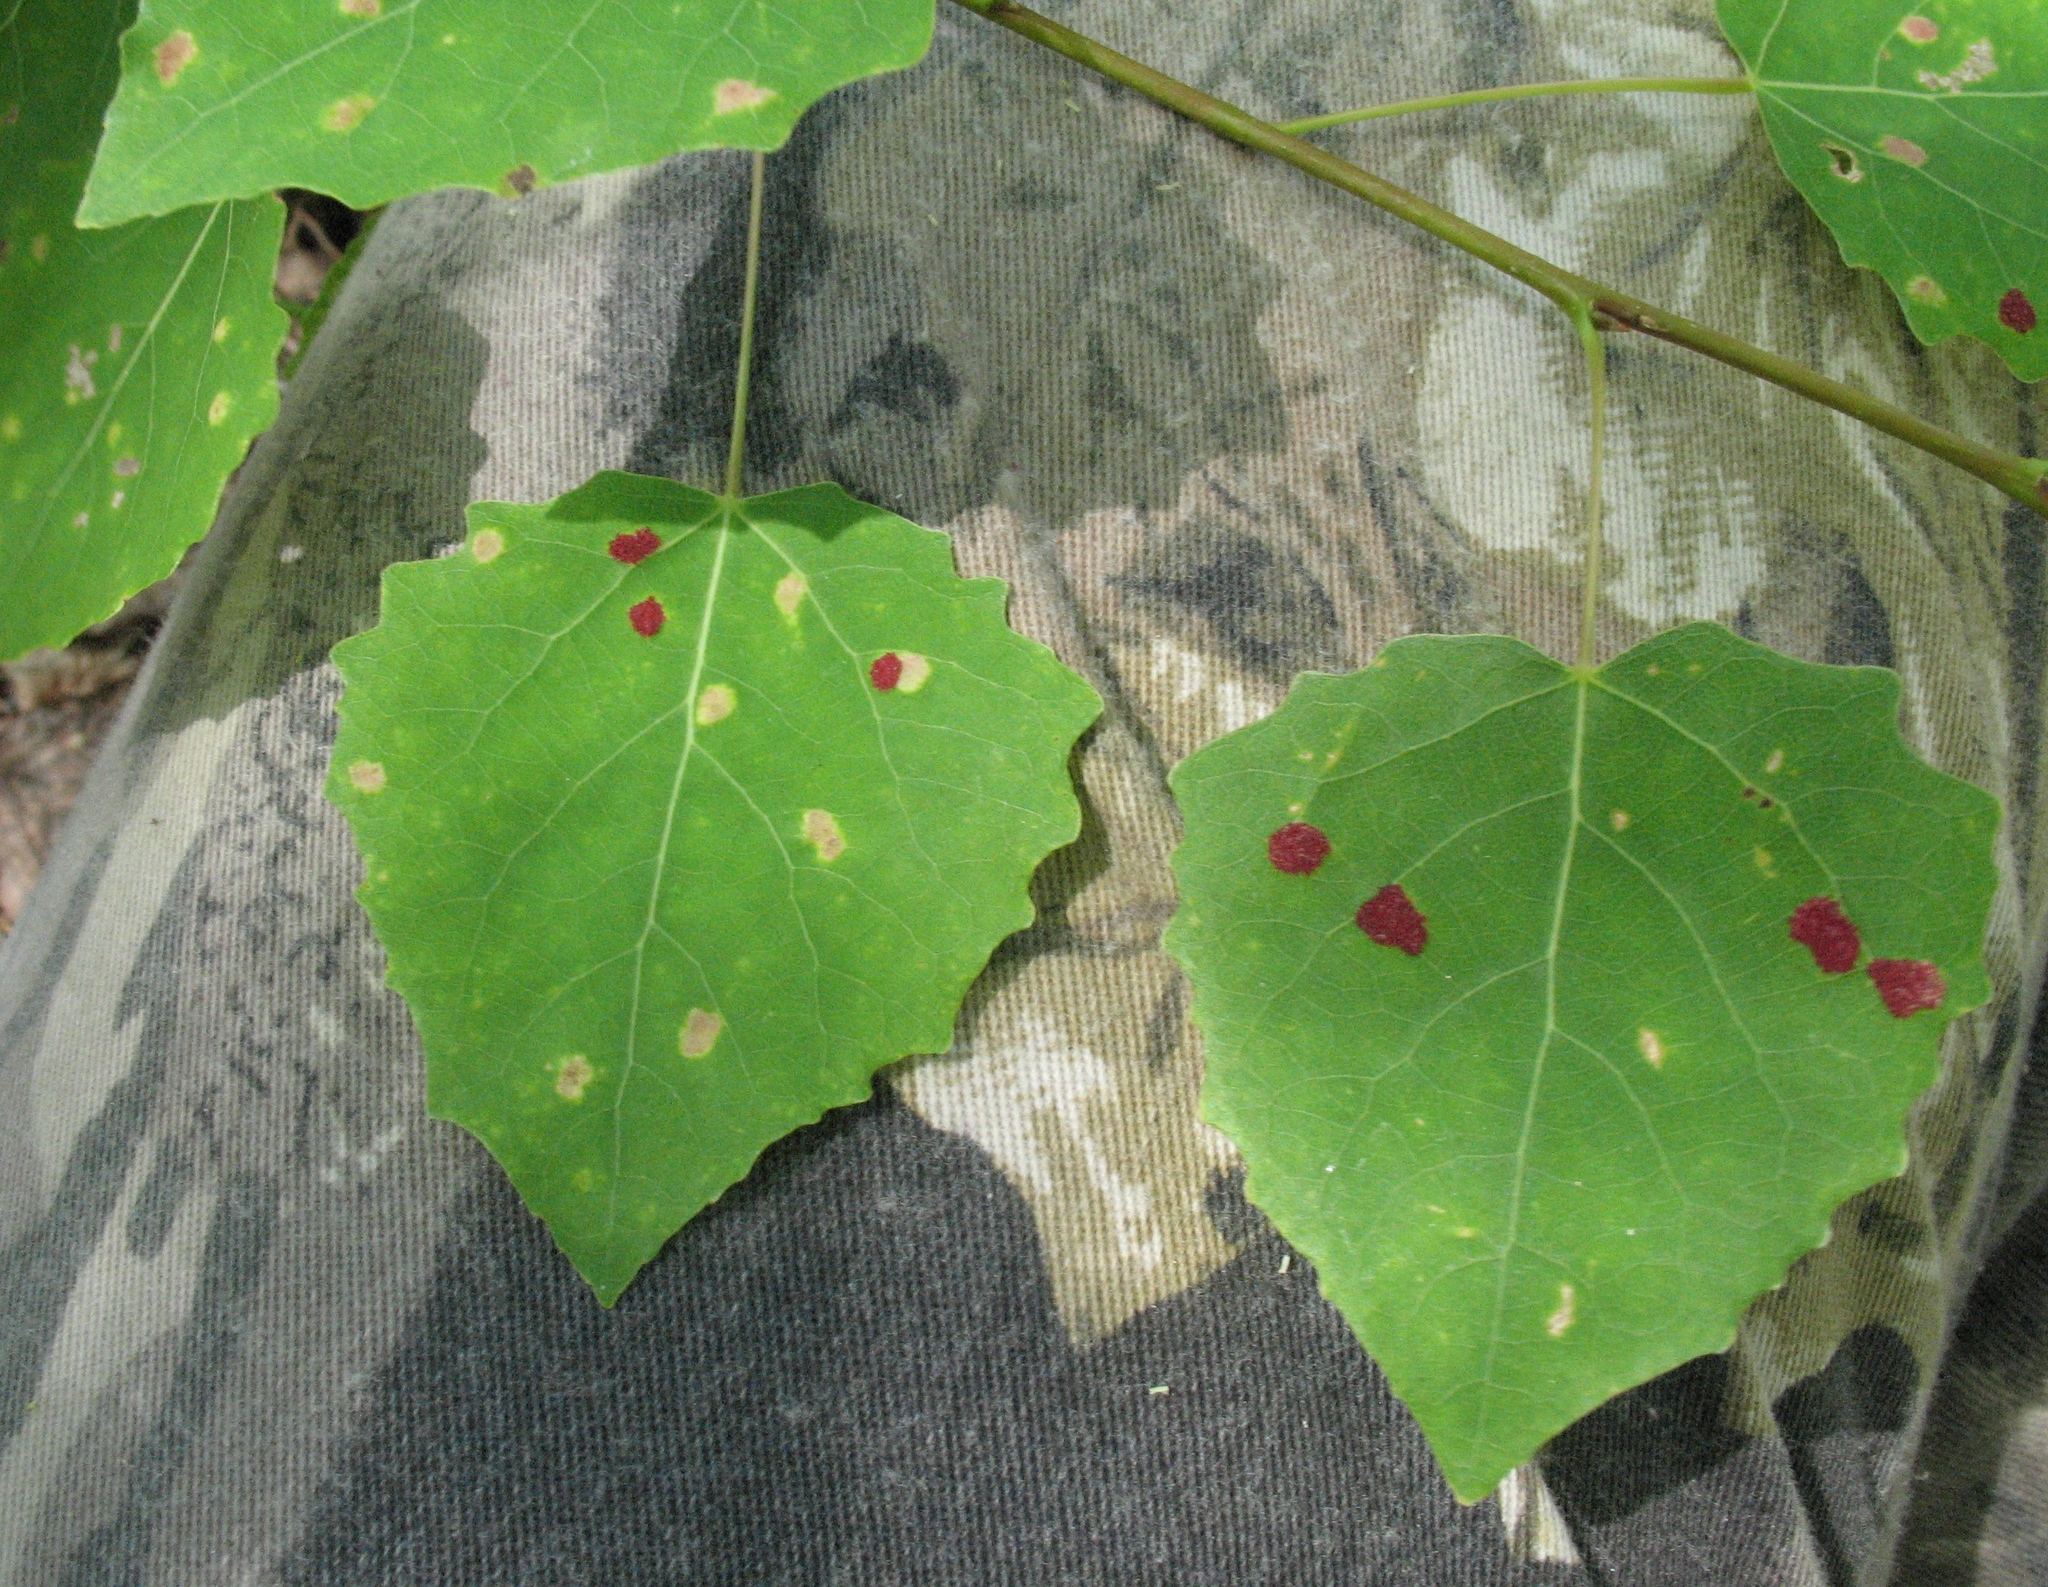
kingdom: Plantae
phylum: Tracheophyta
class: Magnoliopsida
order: Malpighiales
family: Salicaceae
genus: Populus
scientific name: Populus tremula
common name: European aspen
